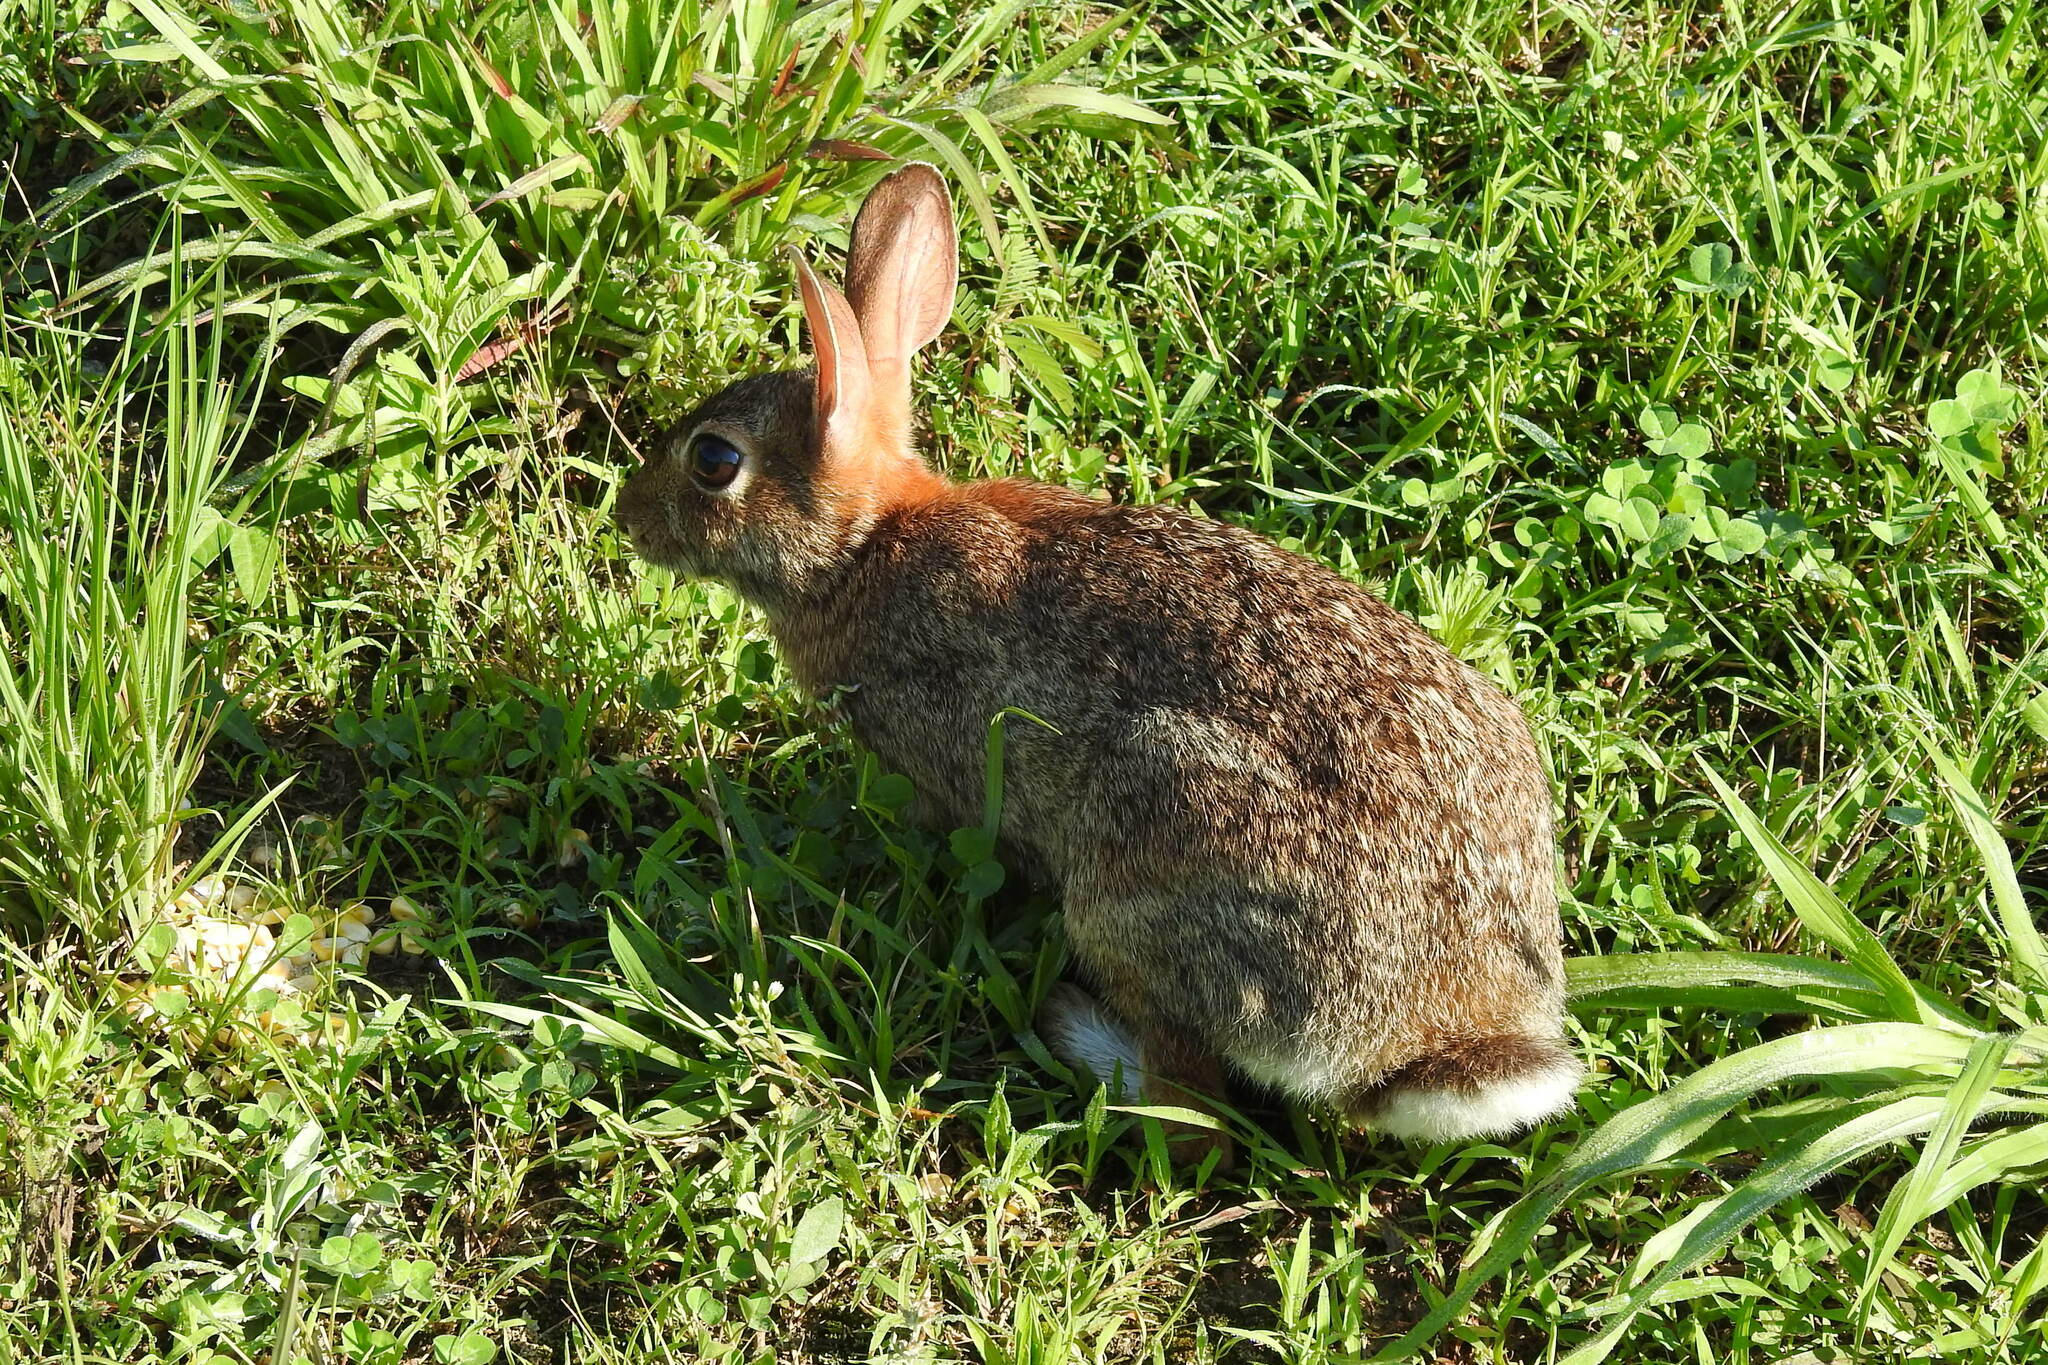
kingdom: Animalia
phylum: Chordata
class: Mammalia
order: Lagomorpha
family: Leporidae
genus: Sylvilagus
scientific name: Sylvilagus floridanus
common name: Eastern cottontail
